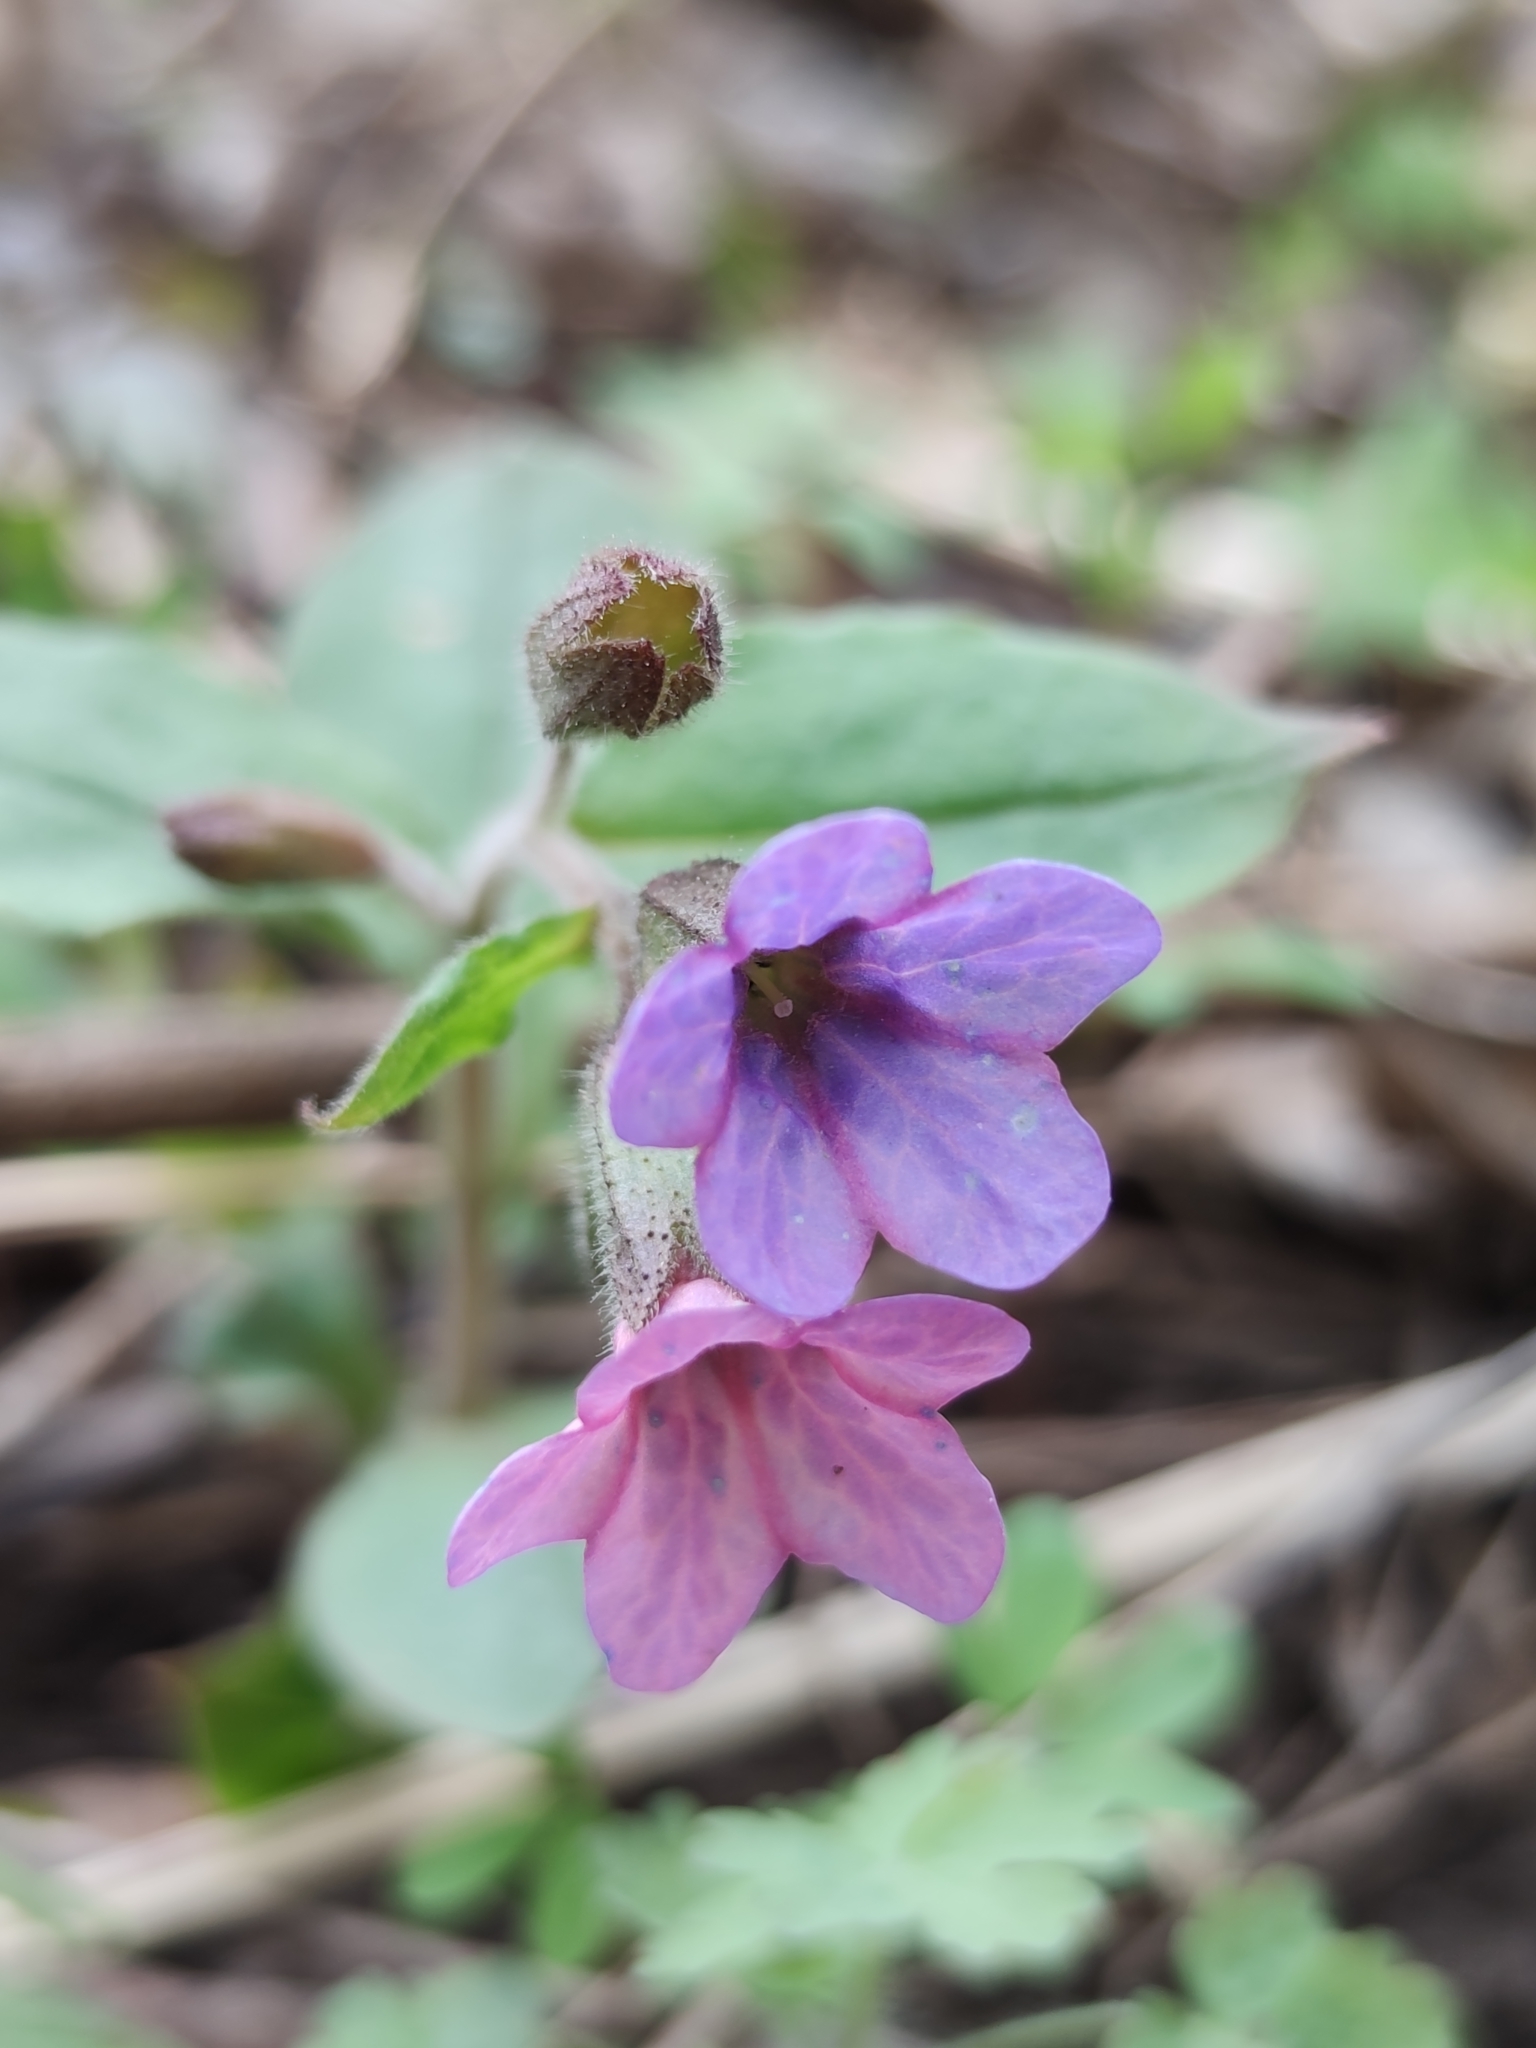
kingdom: Plantae
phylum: Tracheophyta
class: Magnoliopsida
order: Boraginales
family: Boraginaceae
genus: Pulmonaria
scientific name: Pulmonaria officinalis
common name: Lungwort
